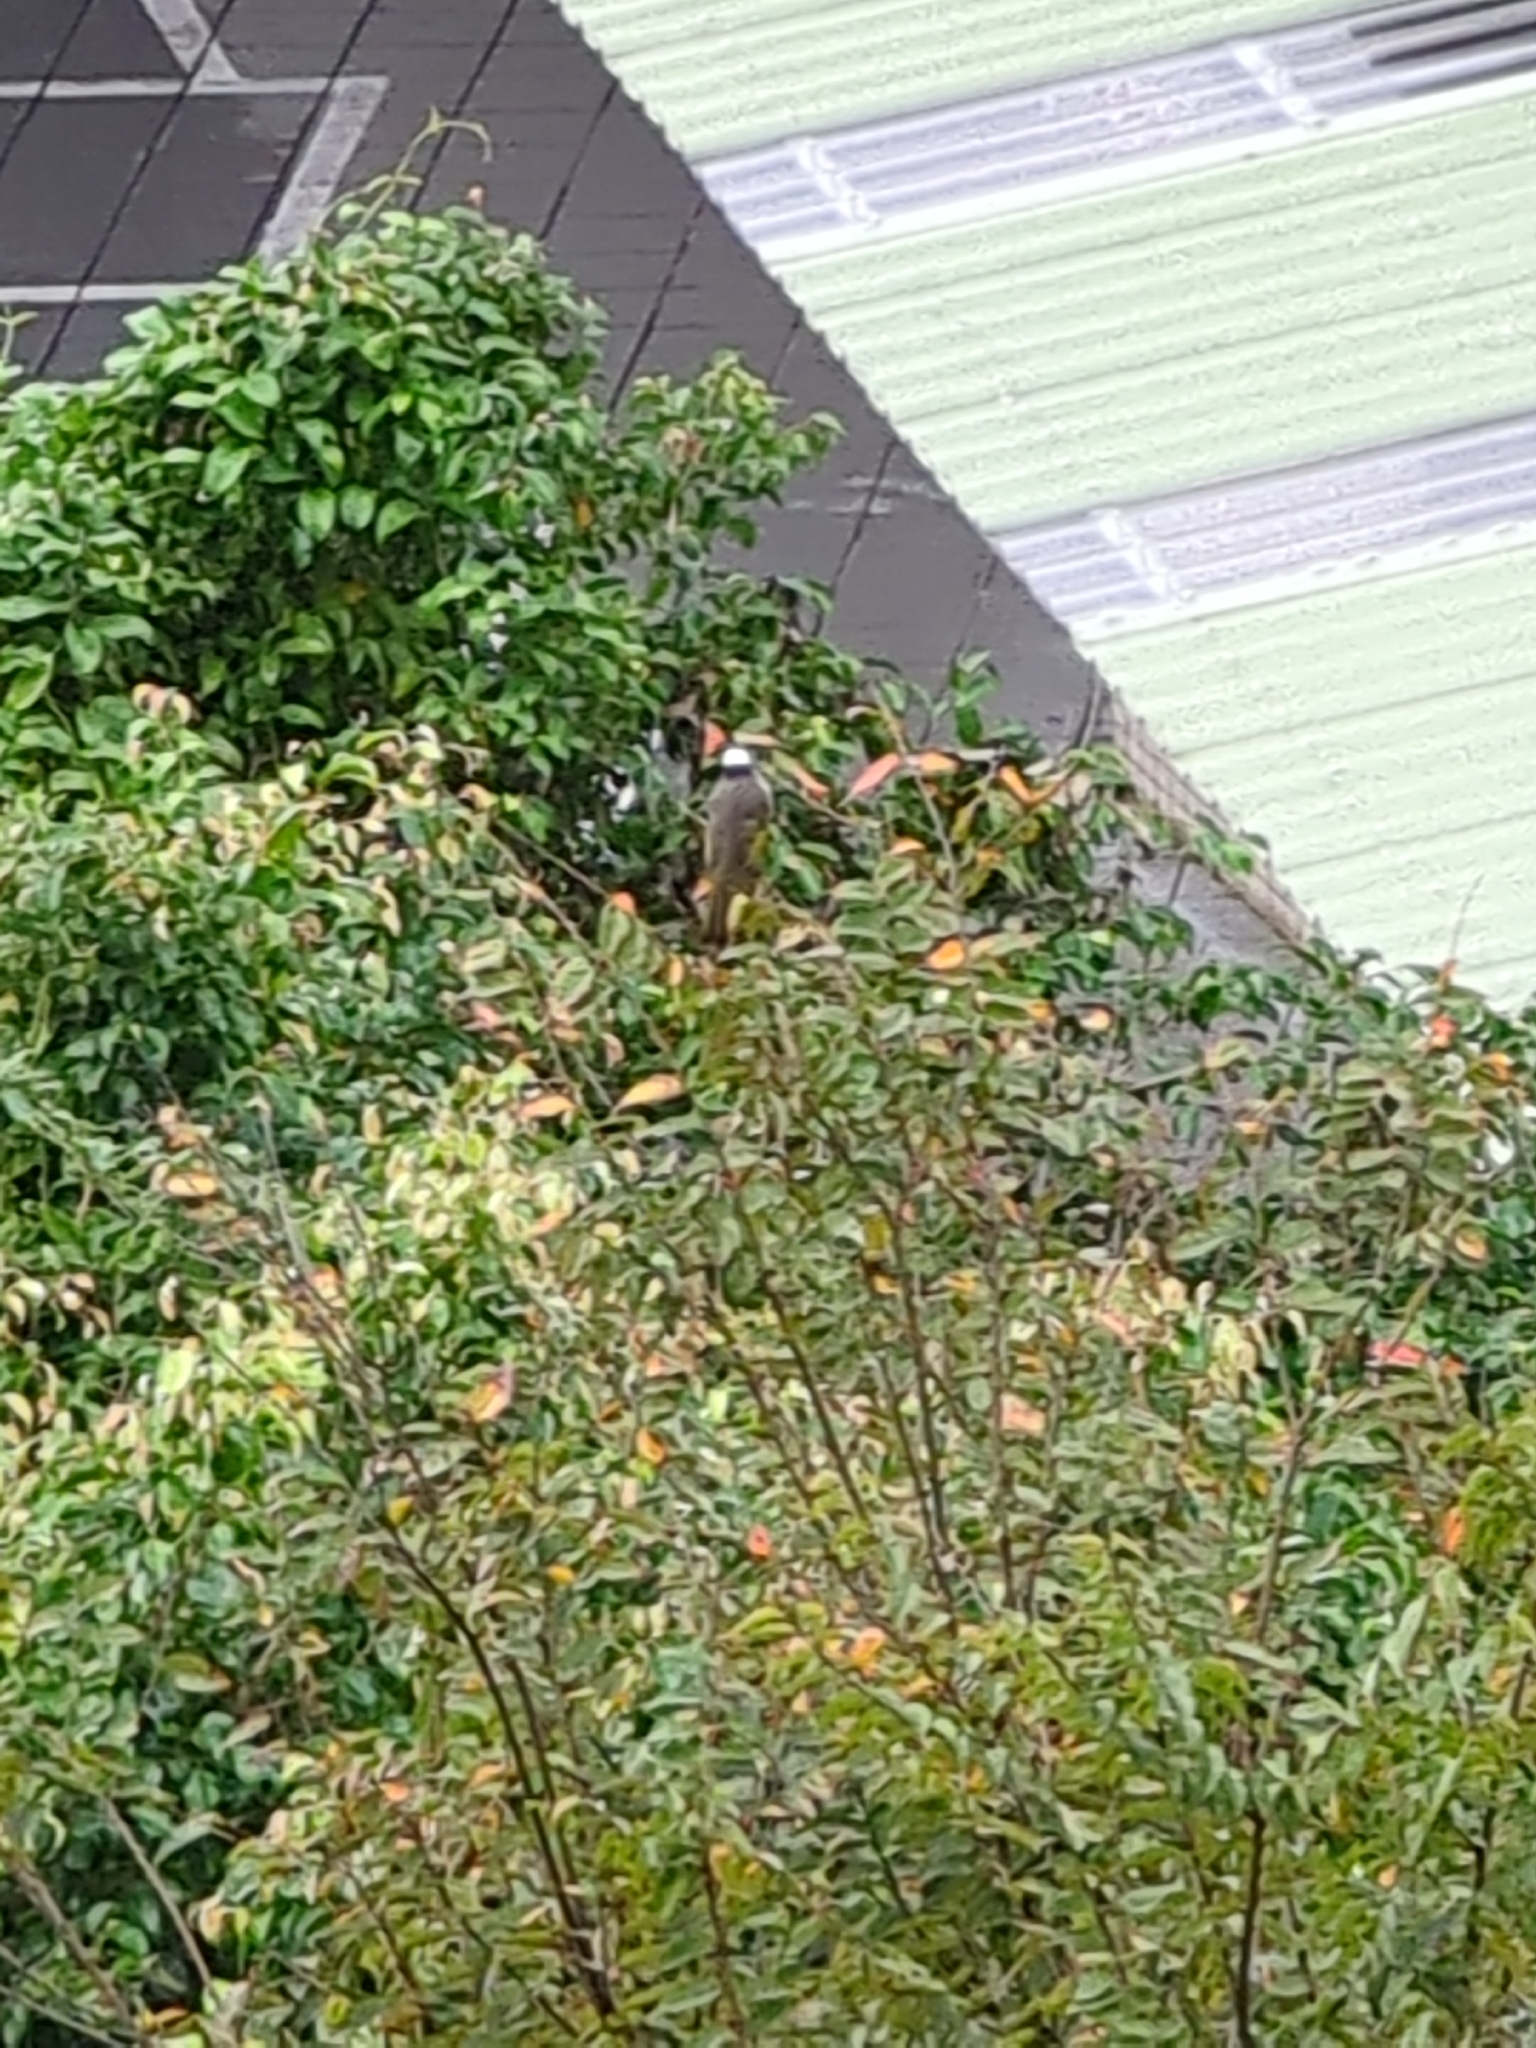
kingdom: Animalia
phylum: Chordata
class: Aves
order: Passeriformes
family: Pycnonotidae
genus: Pycnonotus
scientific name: Pycnonotus sinensis
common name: Light-vented bulbul
